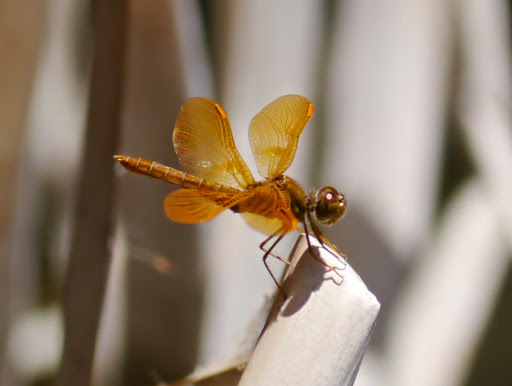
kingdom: Animalia
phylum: Arthropoda
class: Insecta
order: Odonata
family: Libellulidae
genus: Perithemis
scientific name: Perithemis intensa
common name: Mexican amberwing
